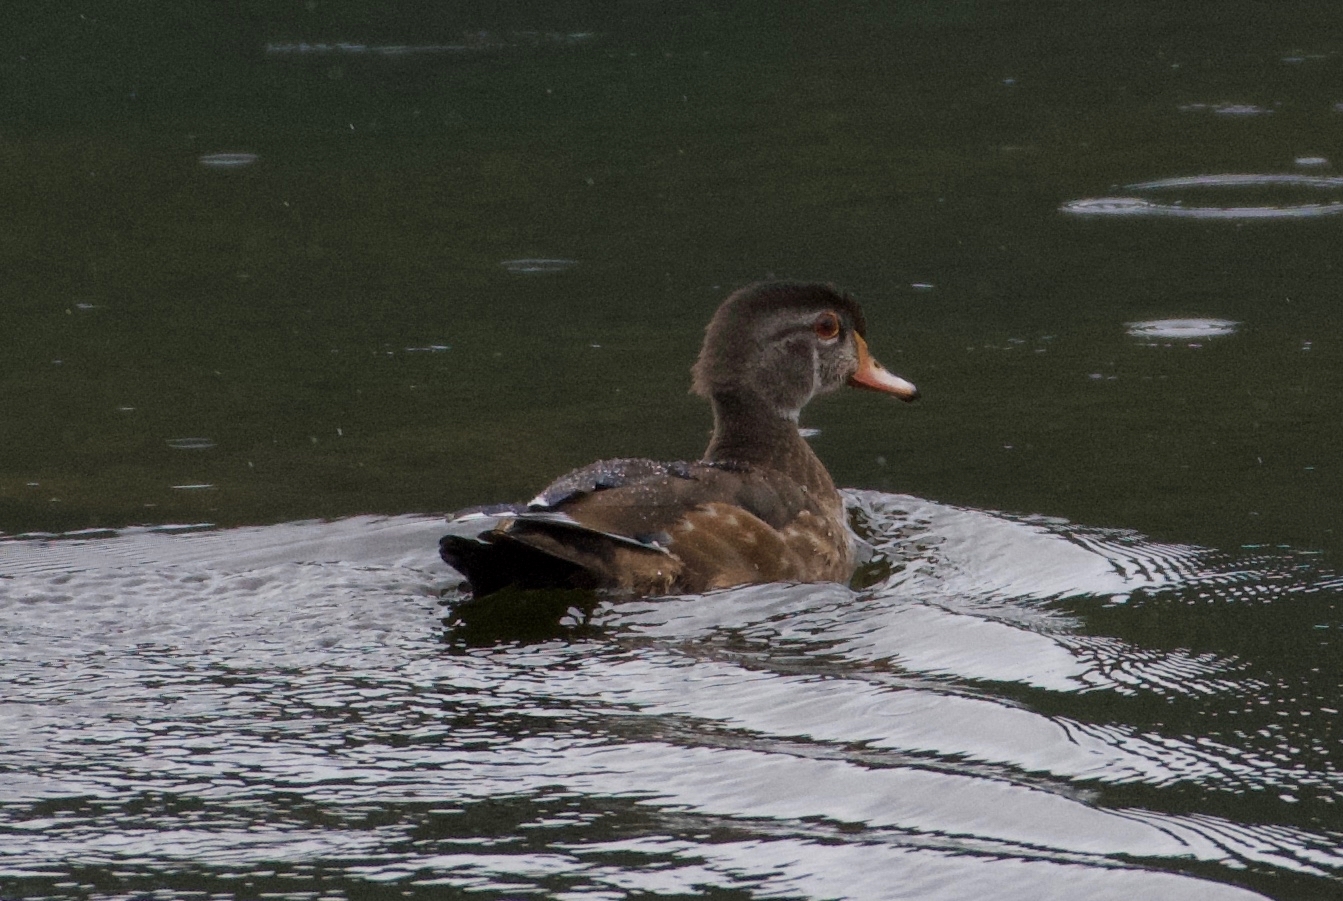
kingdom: Animalia
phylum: Chordata
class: Aves
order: Anseriformes
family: Anatidae
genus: Aix
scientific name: Aix sponsa
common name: Wood duck
